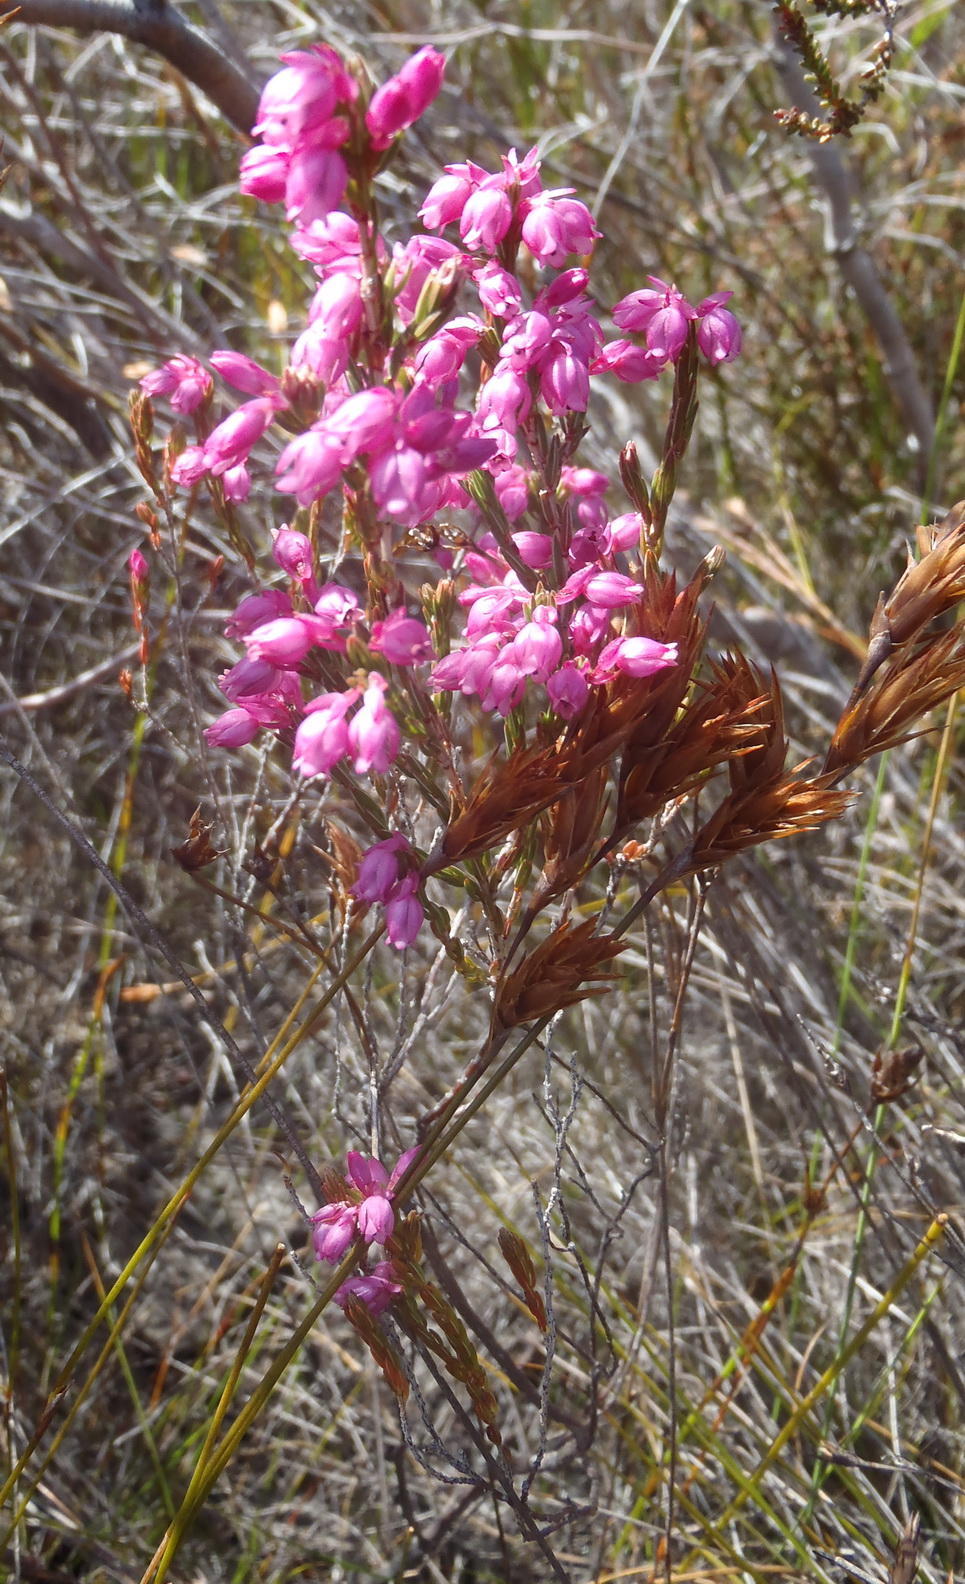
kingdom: Plantae
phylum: Tracheophyta
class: Magnoliopsida
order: Ericales
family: Ericaceae
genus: Erica
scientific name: Erica palliiflora
